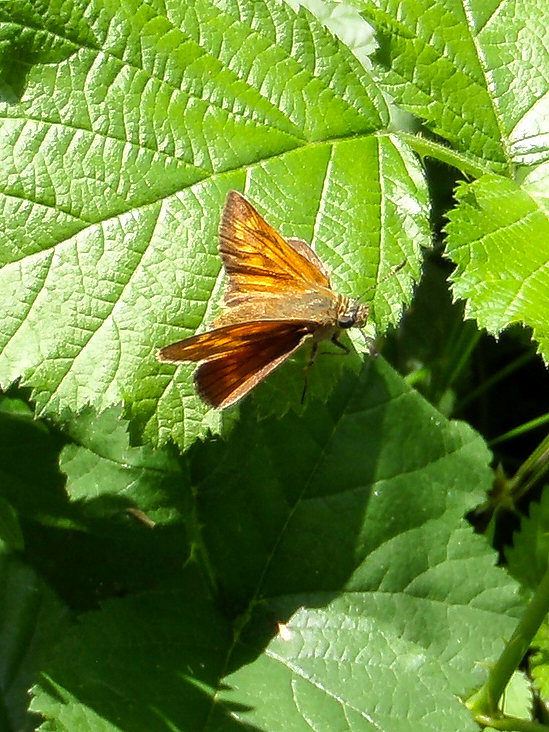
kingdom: Animalia
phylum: Arthropoda
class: Insecta
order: Lepidoptera
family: Hesperiidae
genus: Ochlodes
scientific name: Ochlodes venata
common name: Large skipper
